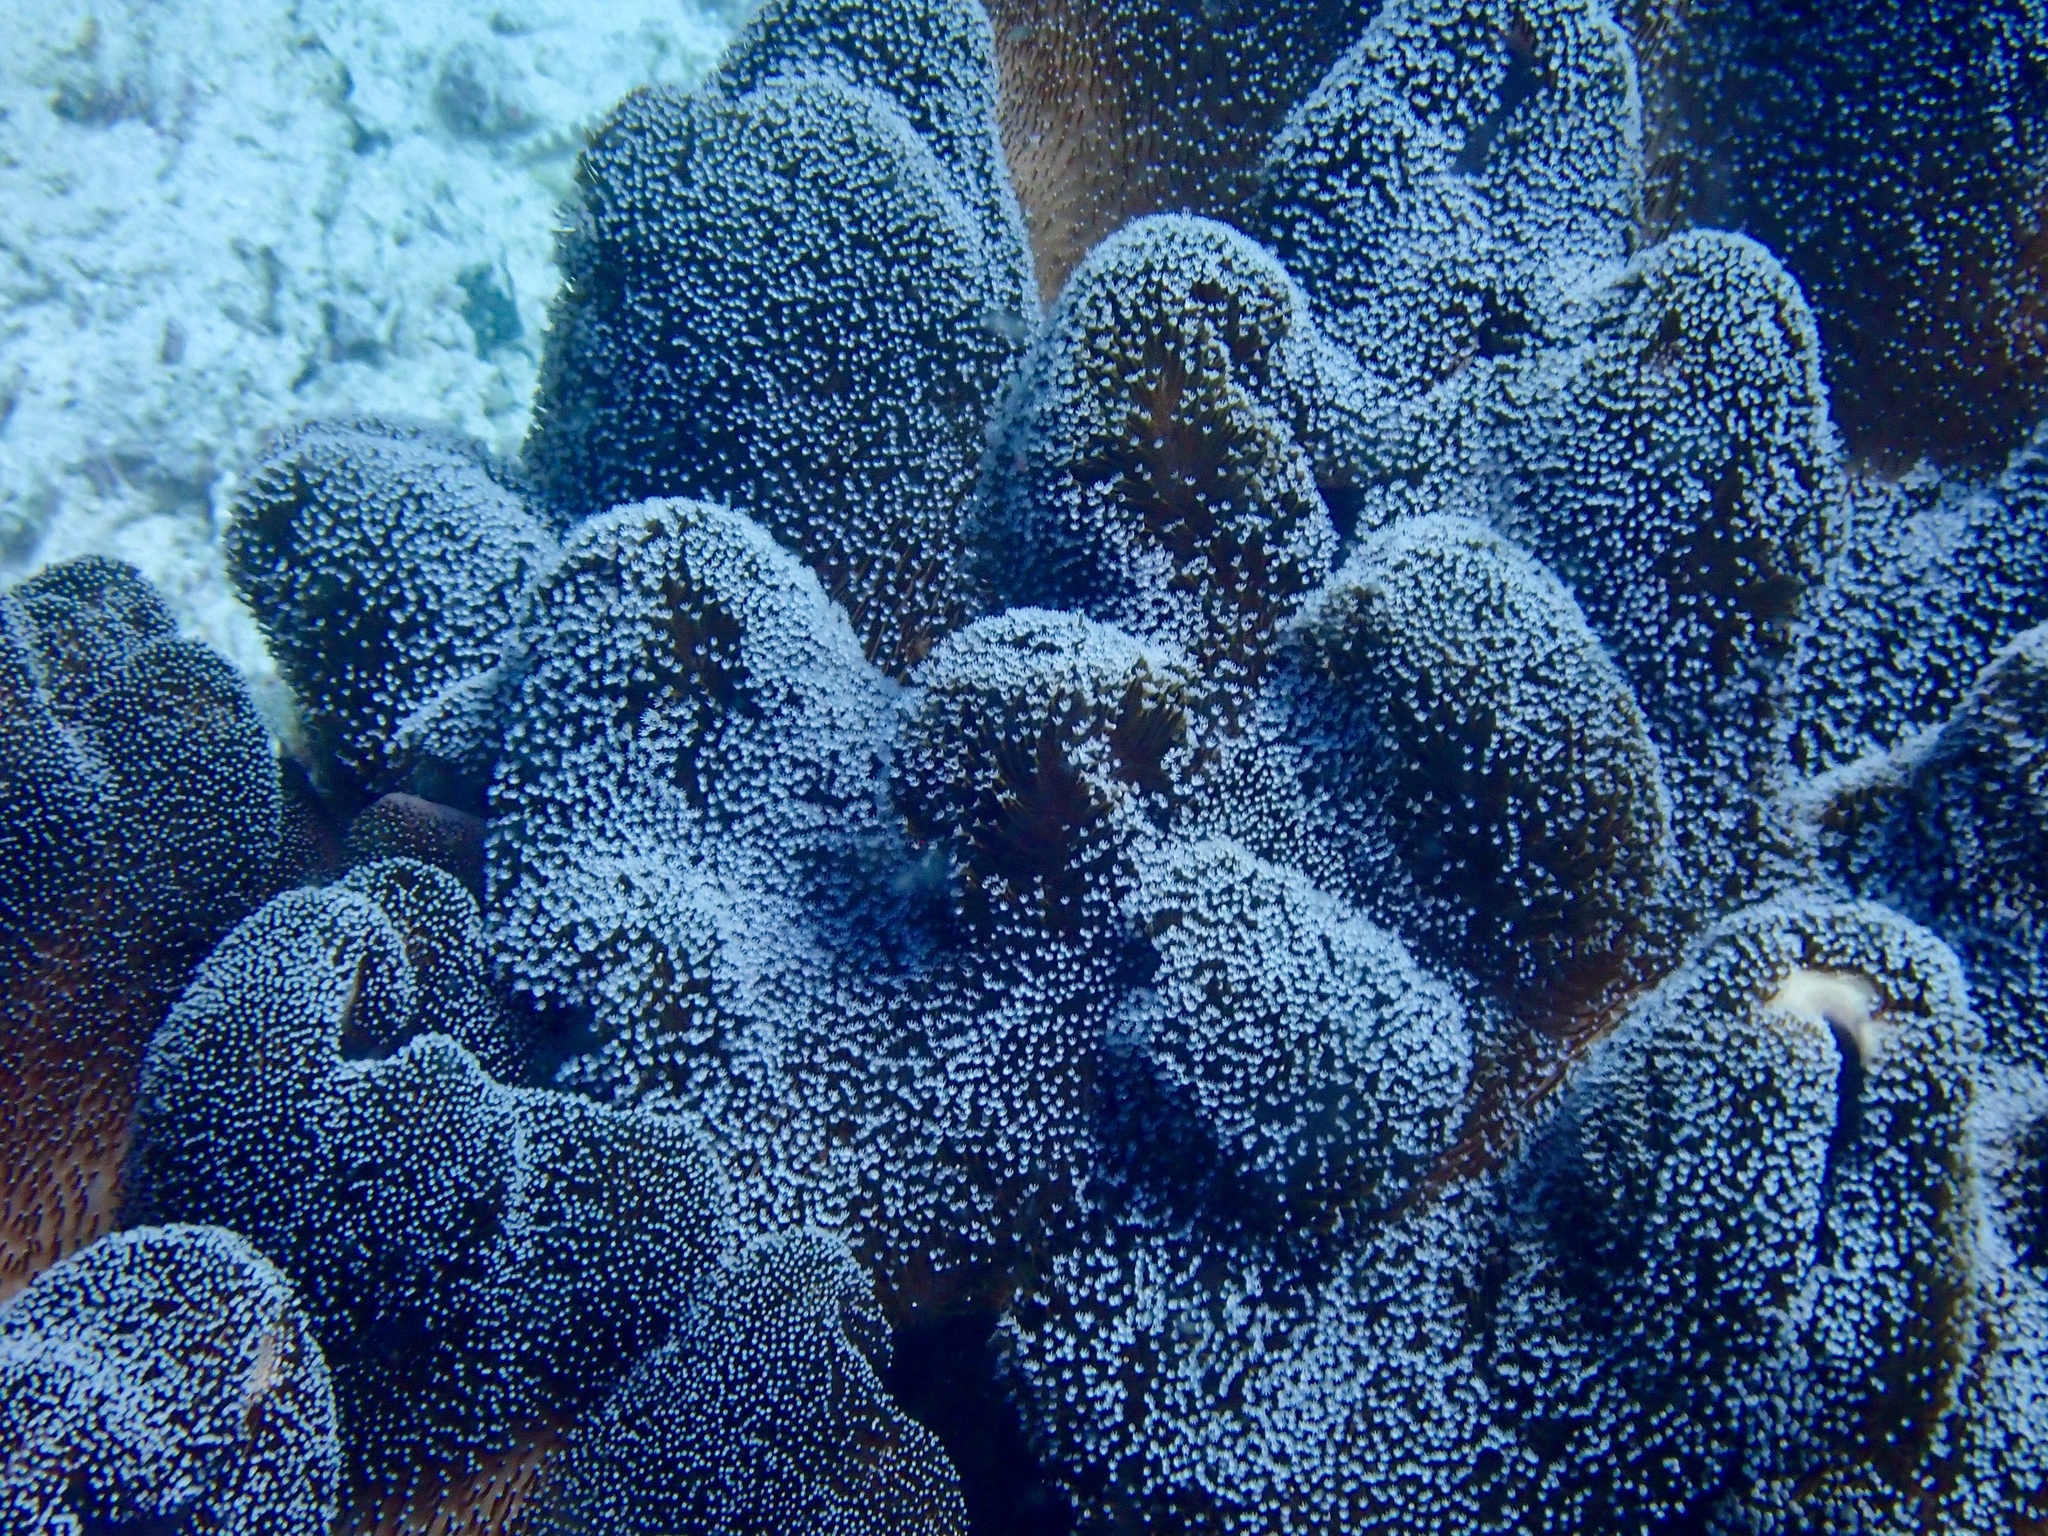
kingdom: Animalia
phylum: Cnidaria
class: Anthozoa
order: Malacalcyonacea
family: Sarcophytidae
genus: Sclerophytum
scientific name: Sclerophytum gravis
